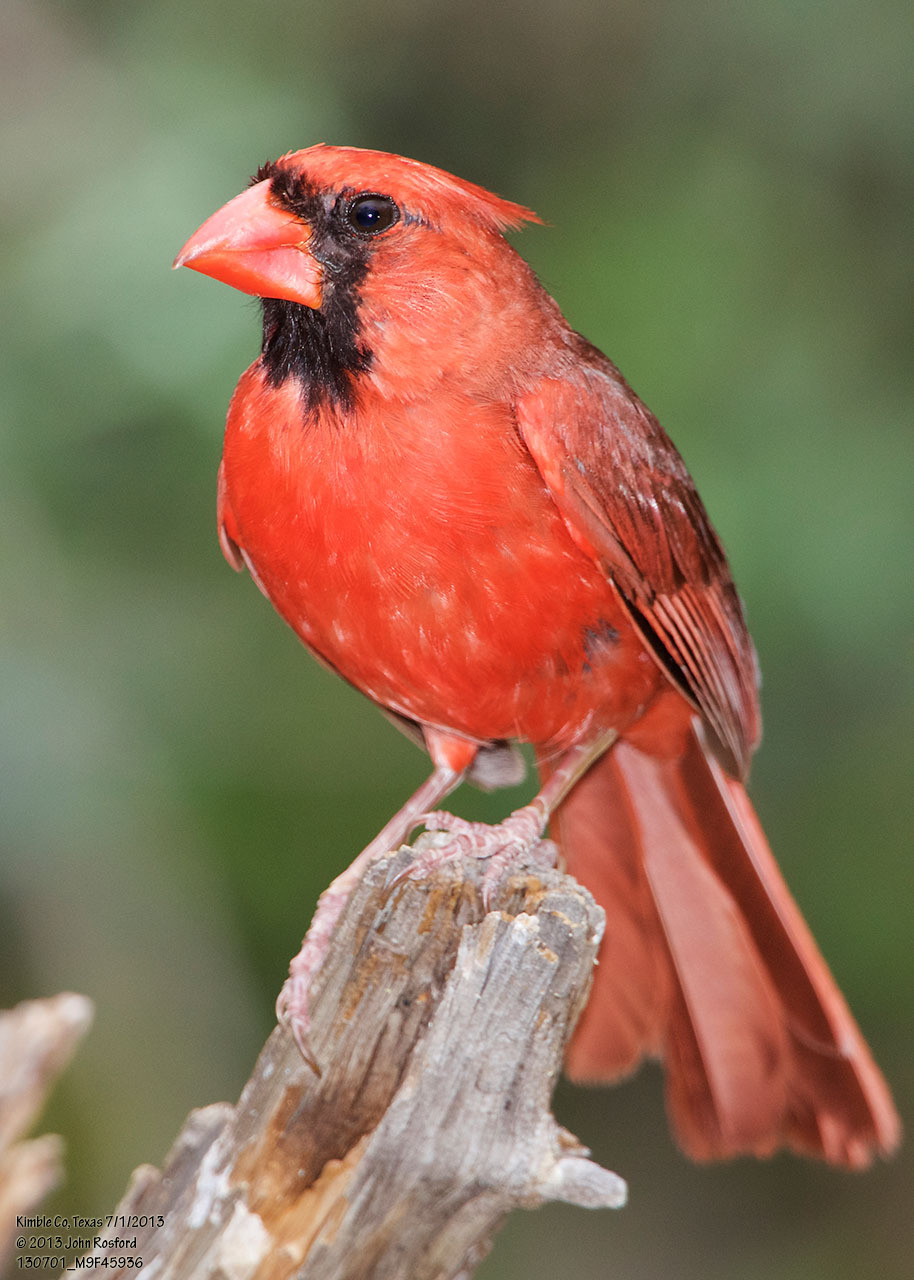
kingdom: Animalia
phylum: Chordata
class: Aves
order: Passeriformes
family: Cardinalidae
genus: Cardinalis
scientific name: Cardinalis cardinalis
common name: Northern cardinal
